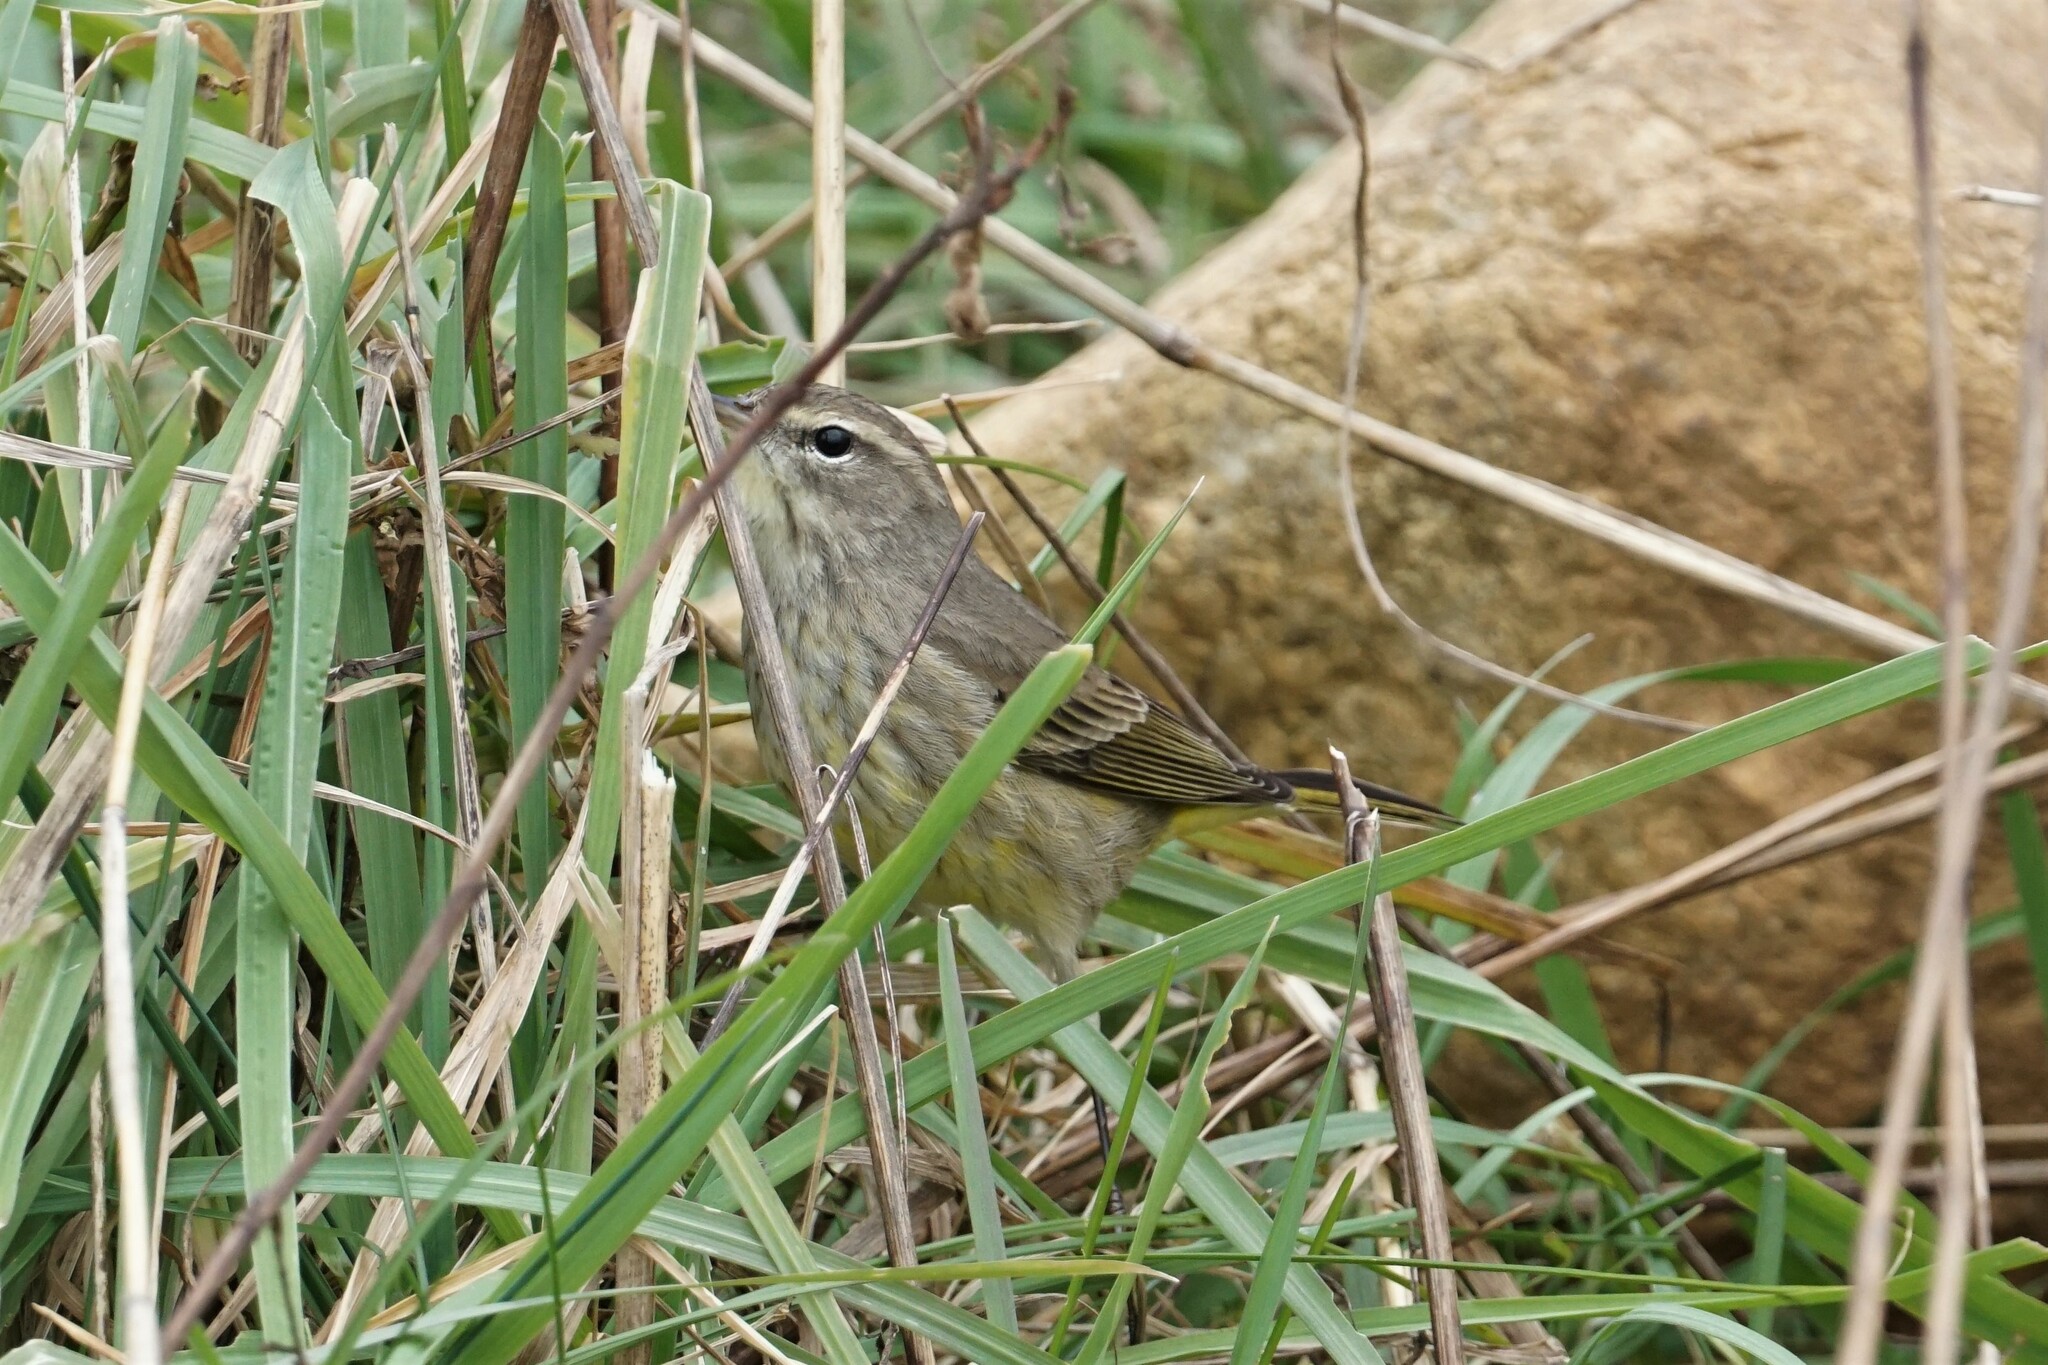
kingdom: Animalia
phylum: Chordata
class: Aves
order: Passeriformes
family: Parulidae
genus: Setophaga
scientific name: Setophaga palmarum
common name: Palm warbler
